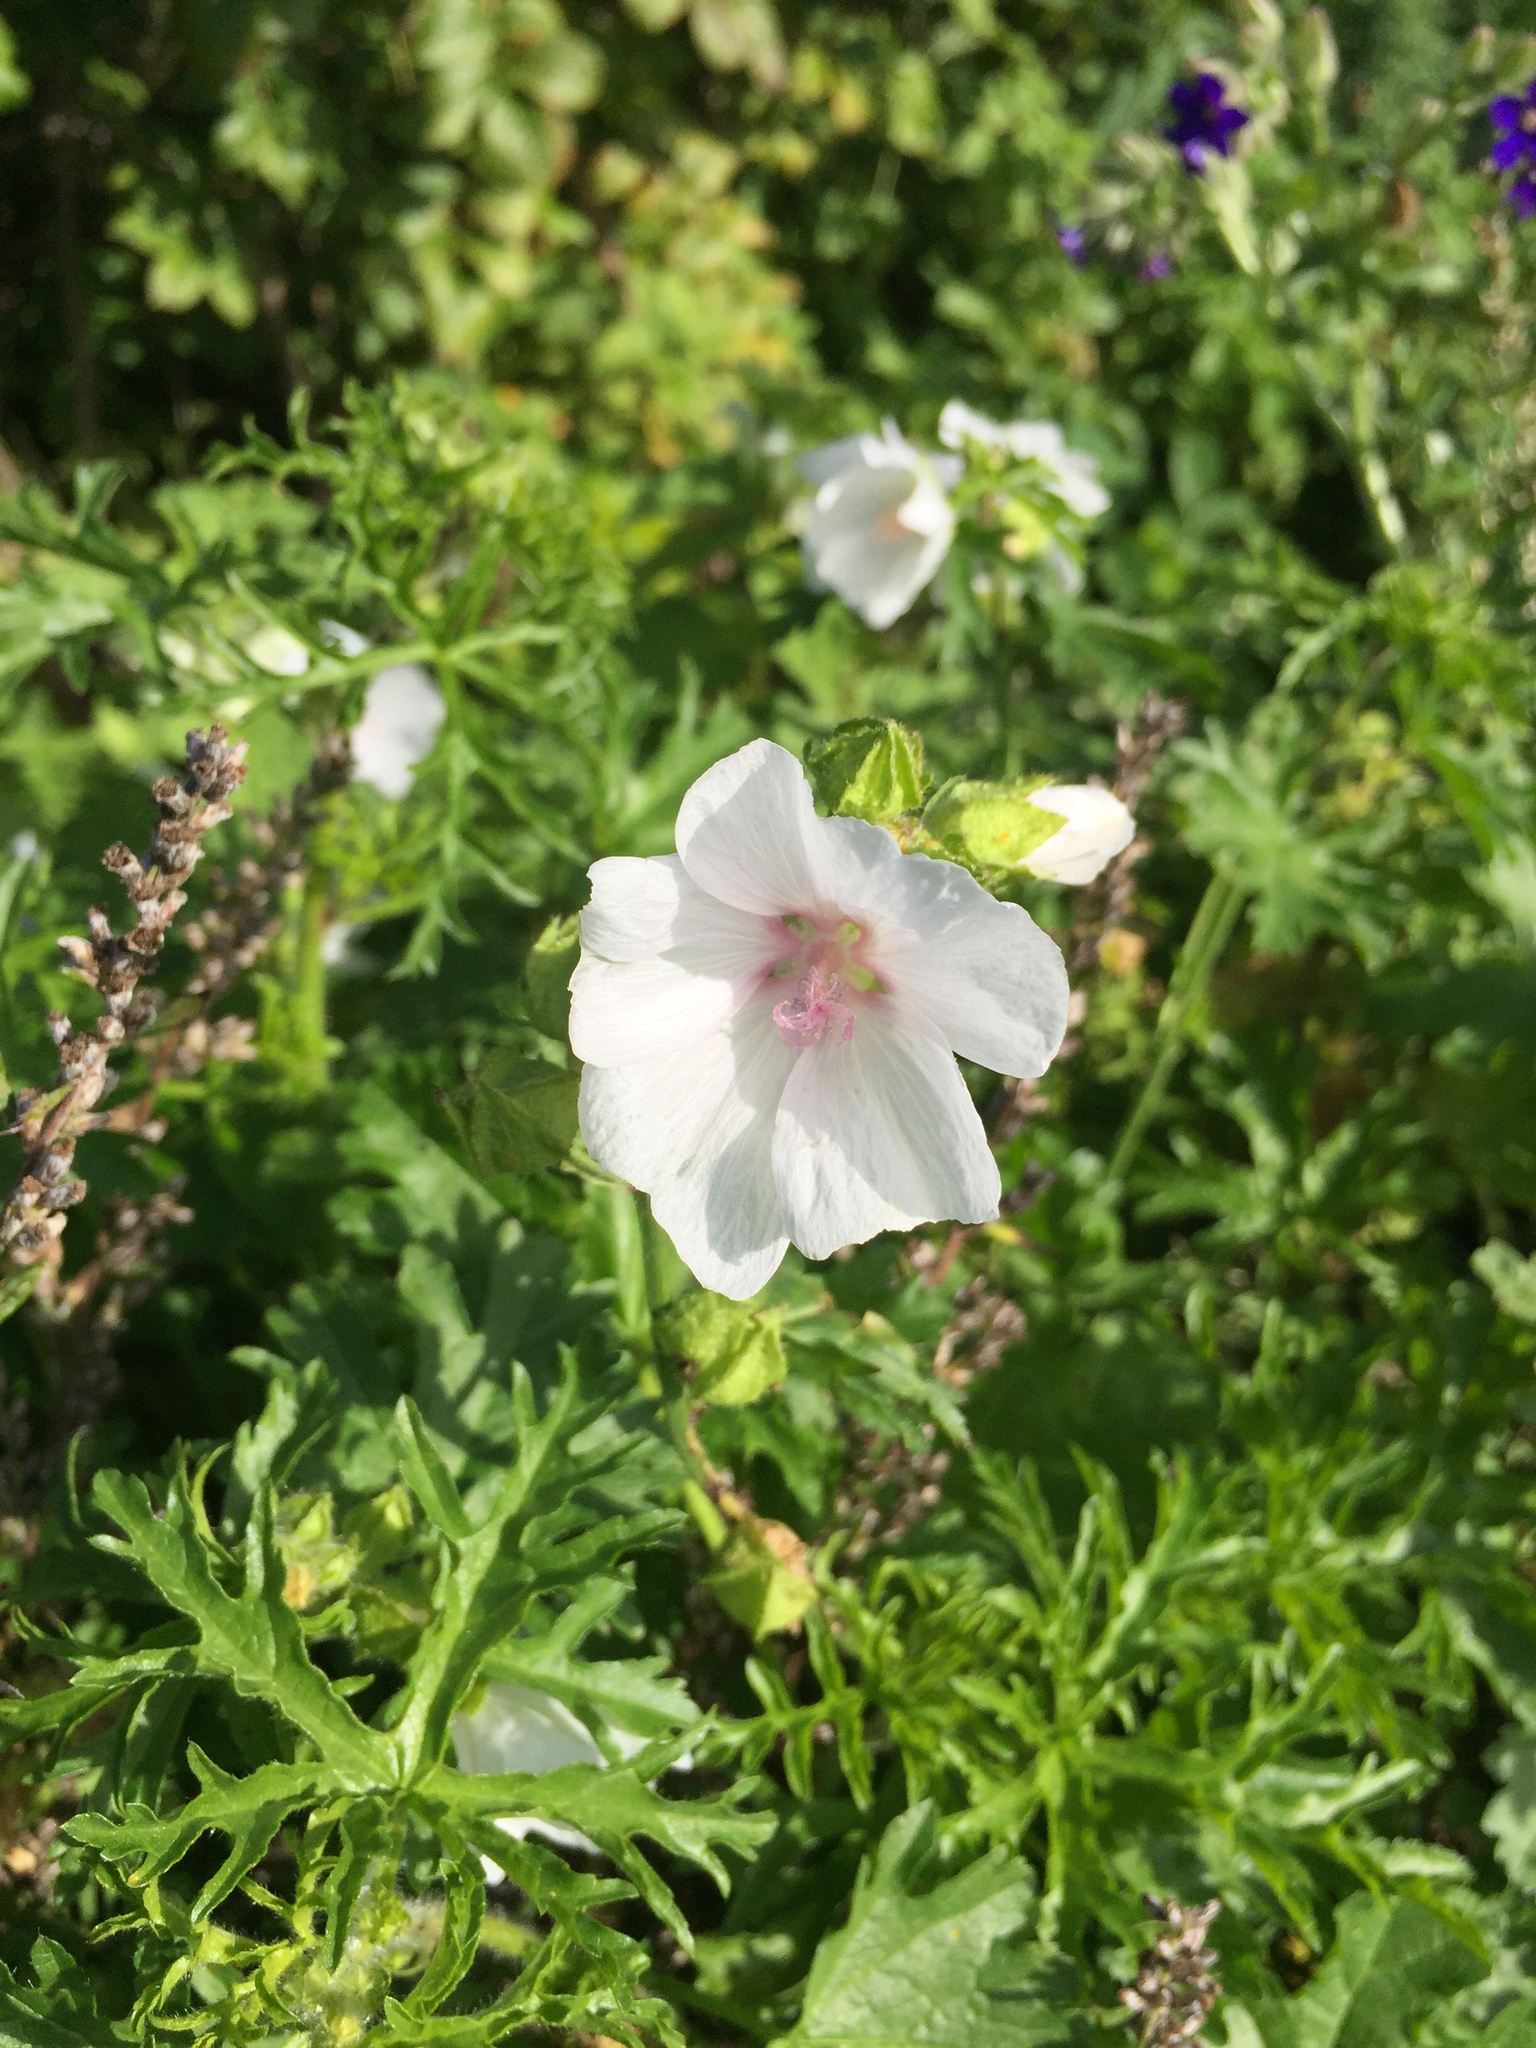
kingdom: Plantae
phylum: Tracheophyta
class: Magnoliopsida
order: Malvales
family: Malvaceae
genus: Malva
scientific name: Malva moschata
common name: Musk mallow
